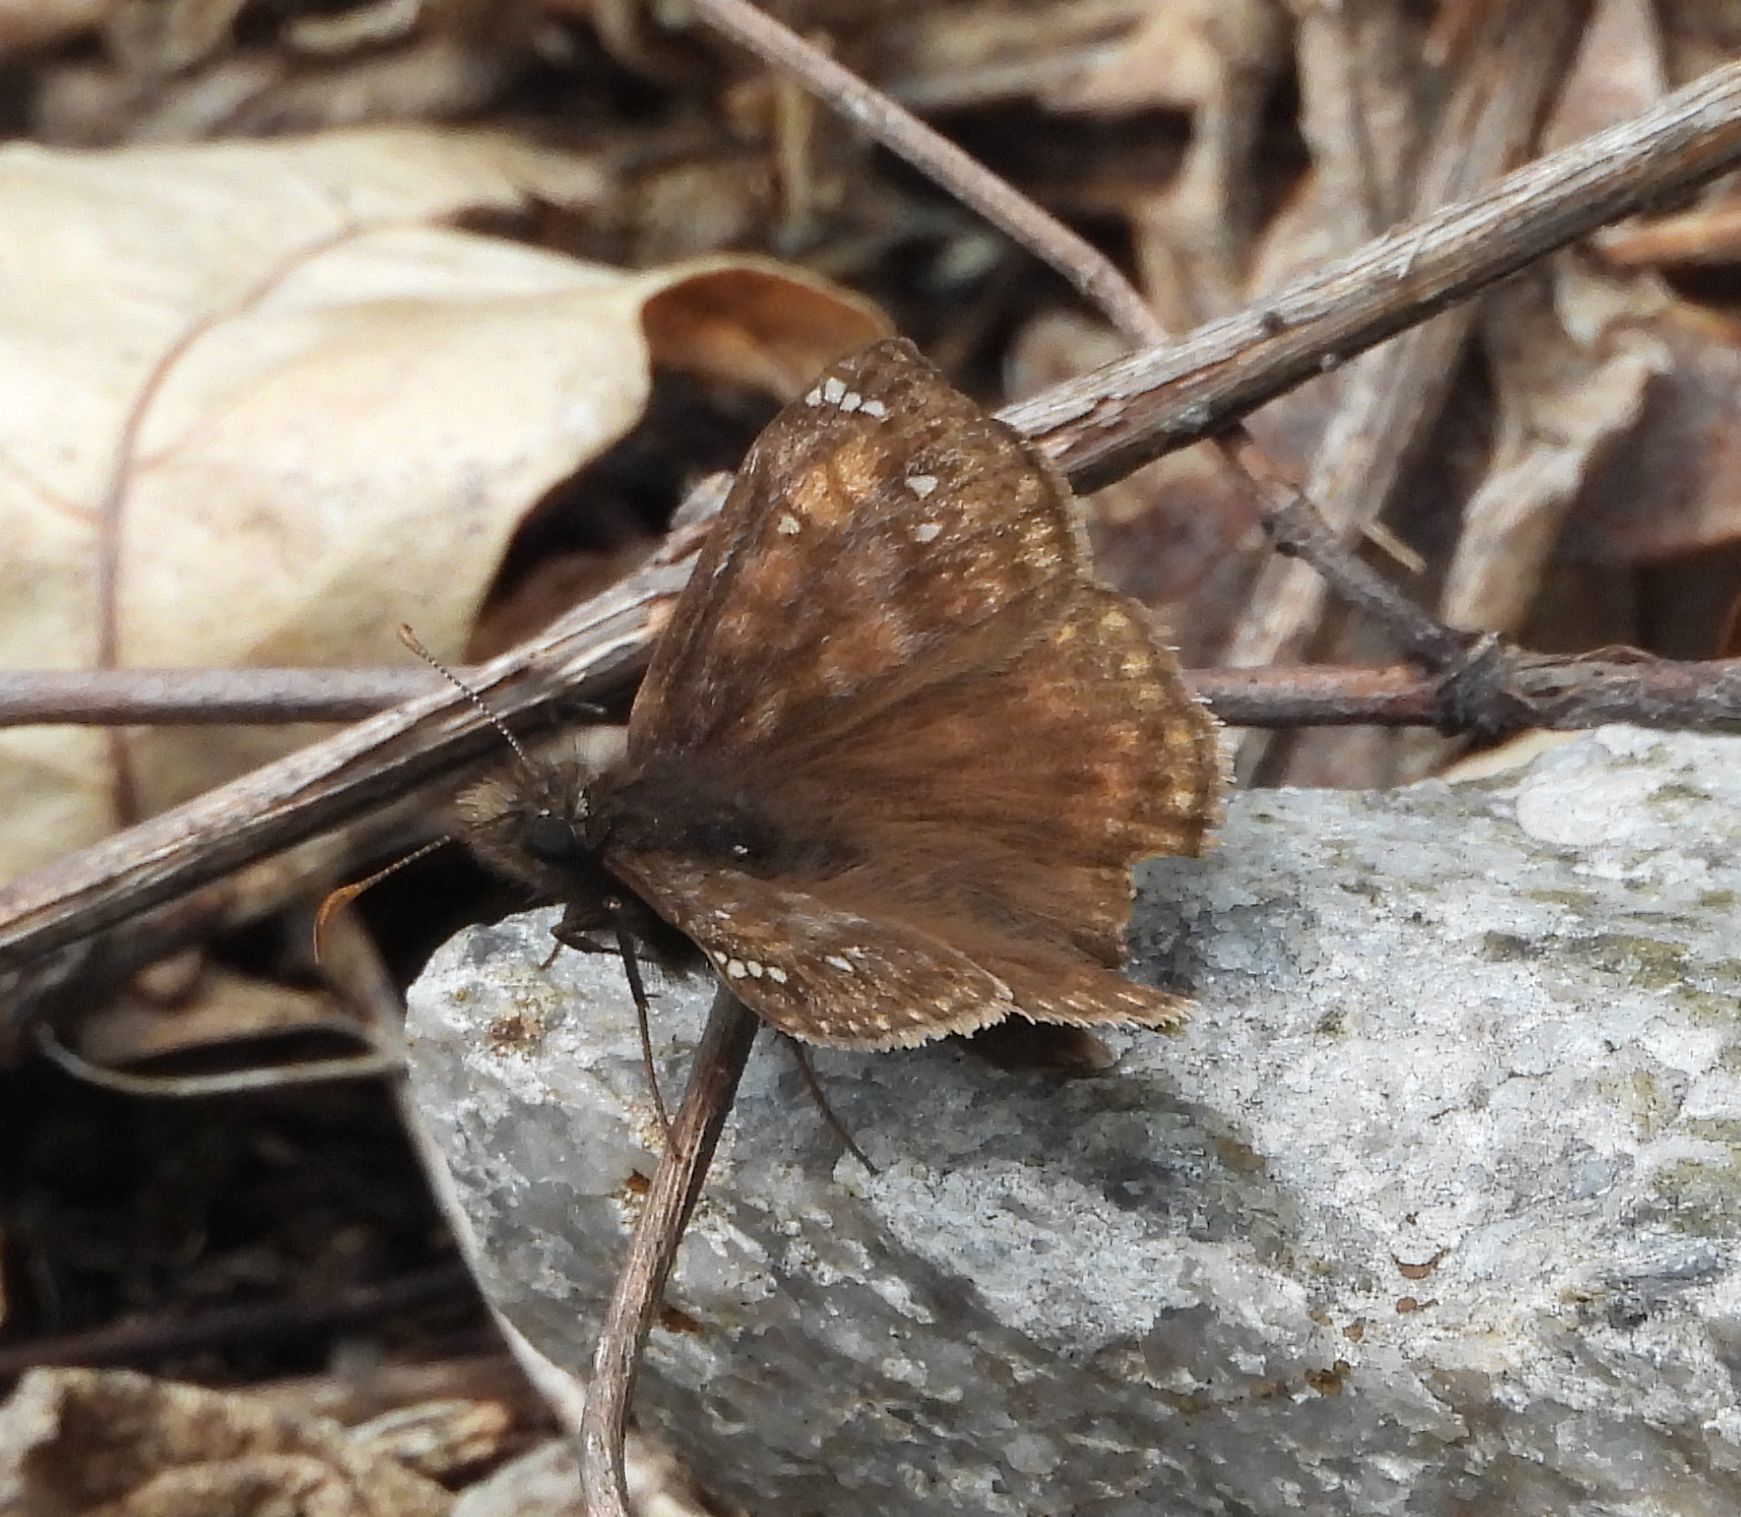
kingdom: Animalia
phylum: Arthropoda
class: Insecta
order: Lepidoptera
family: Hesperiidae
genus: Erynnis
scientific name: Erynnis juvenalis
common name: Juvenal's duskywing
